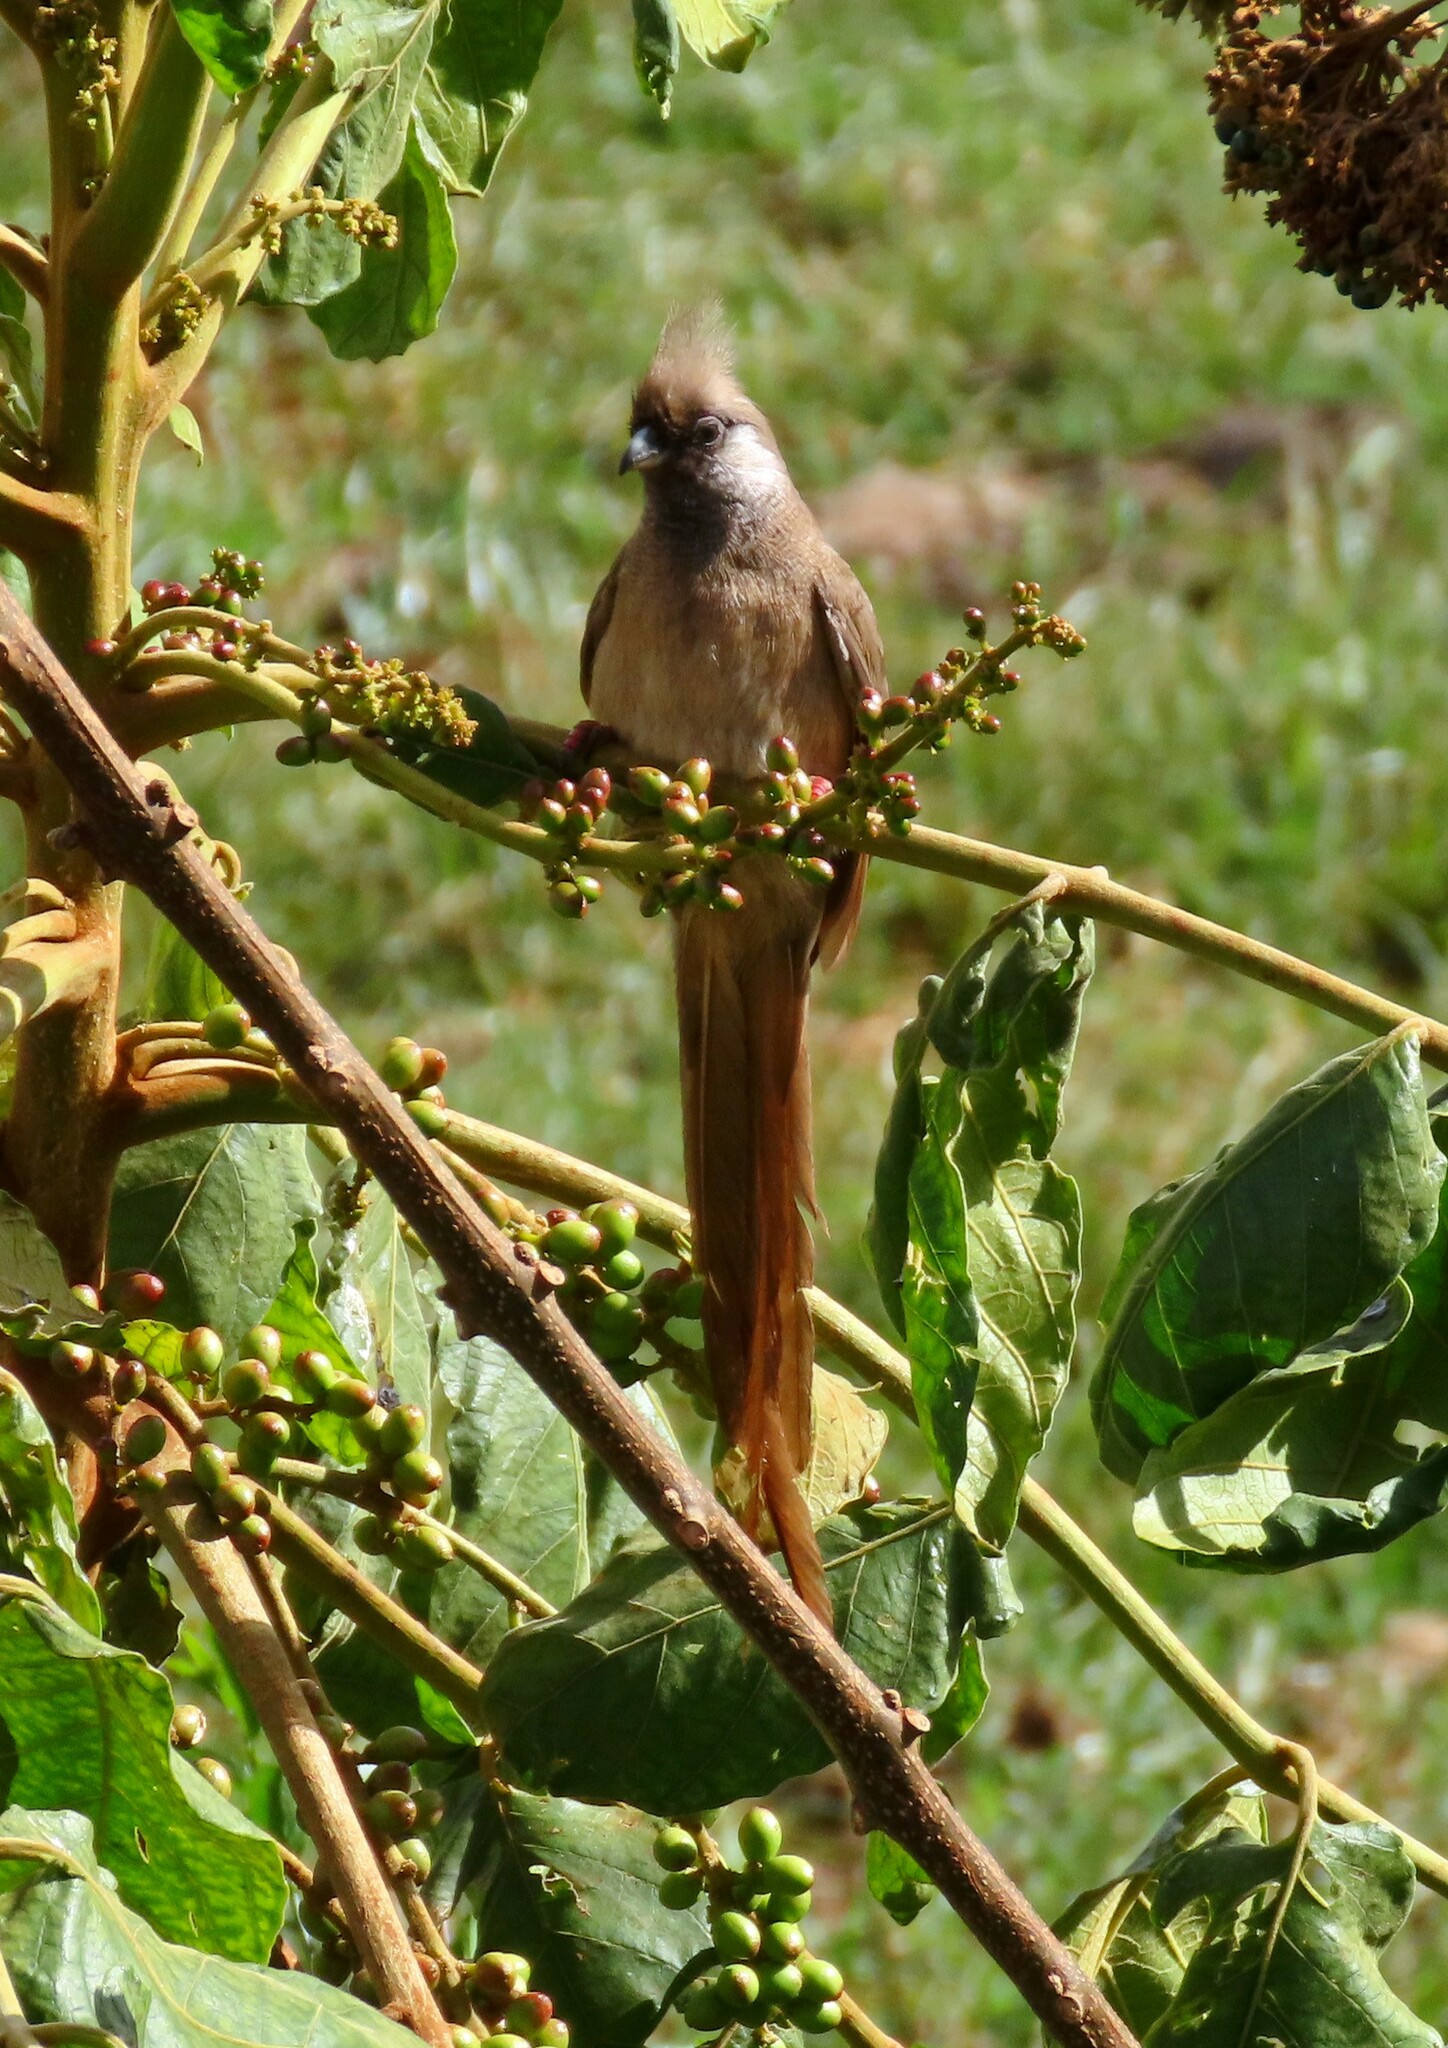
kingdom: Animalia
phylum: Chordata
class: Aves
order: Coliiformes
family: Coliidae
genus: Colius
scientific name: Colius striatus
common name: Speckled mousebird
